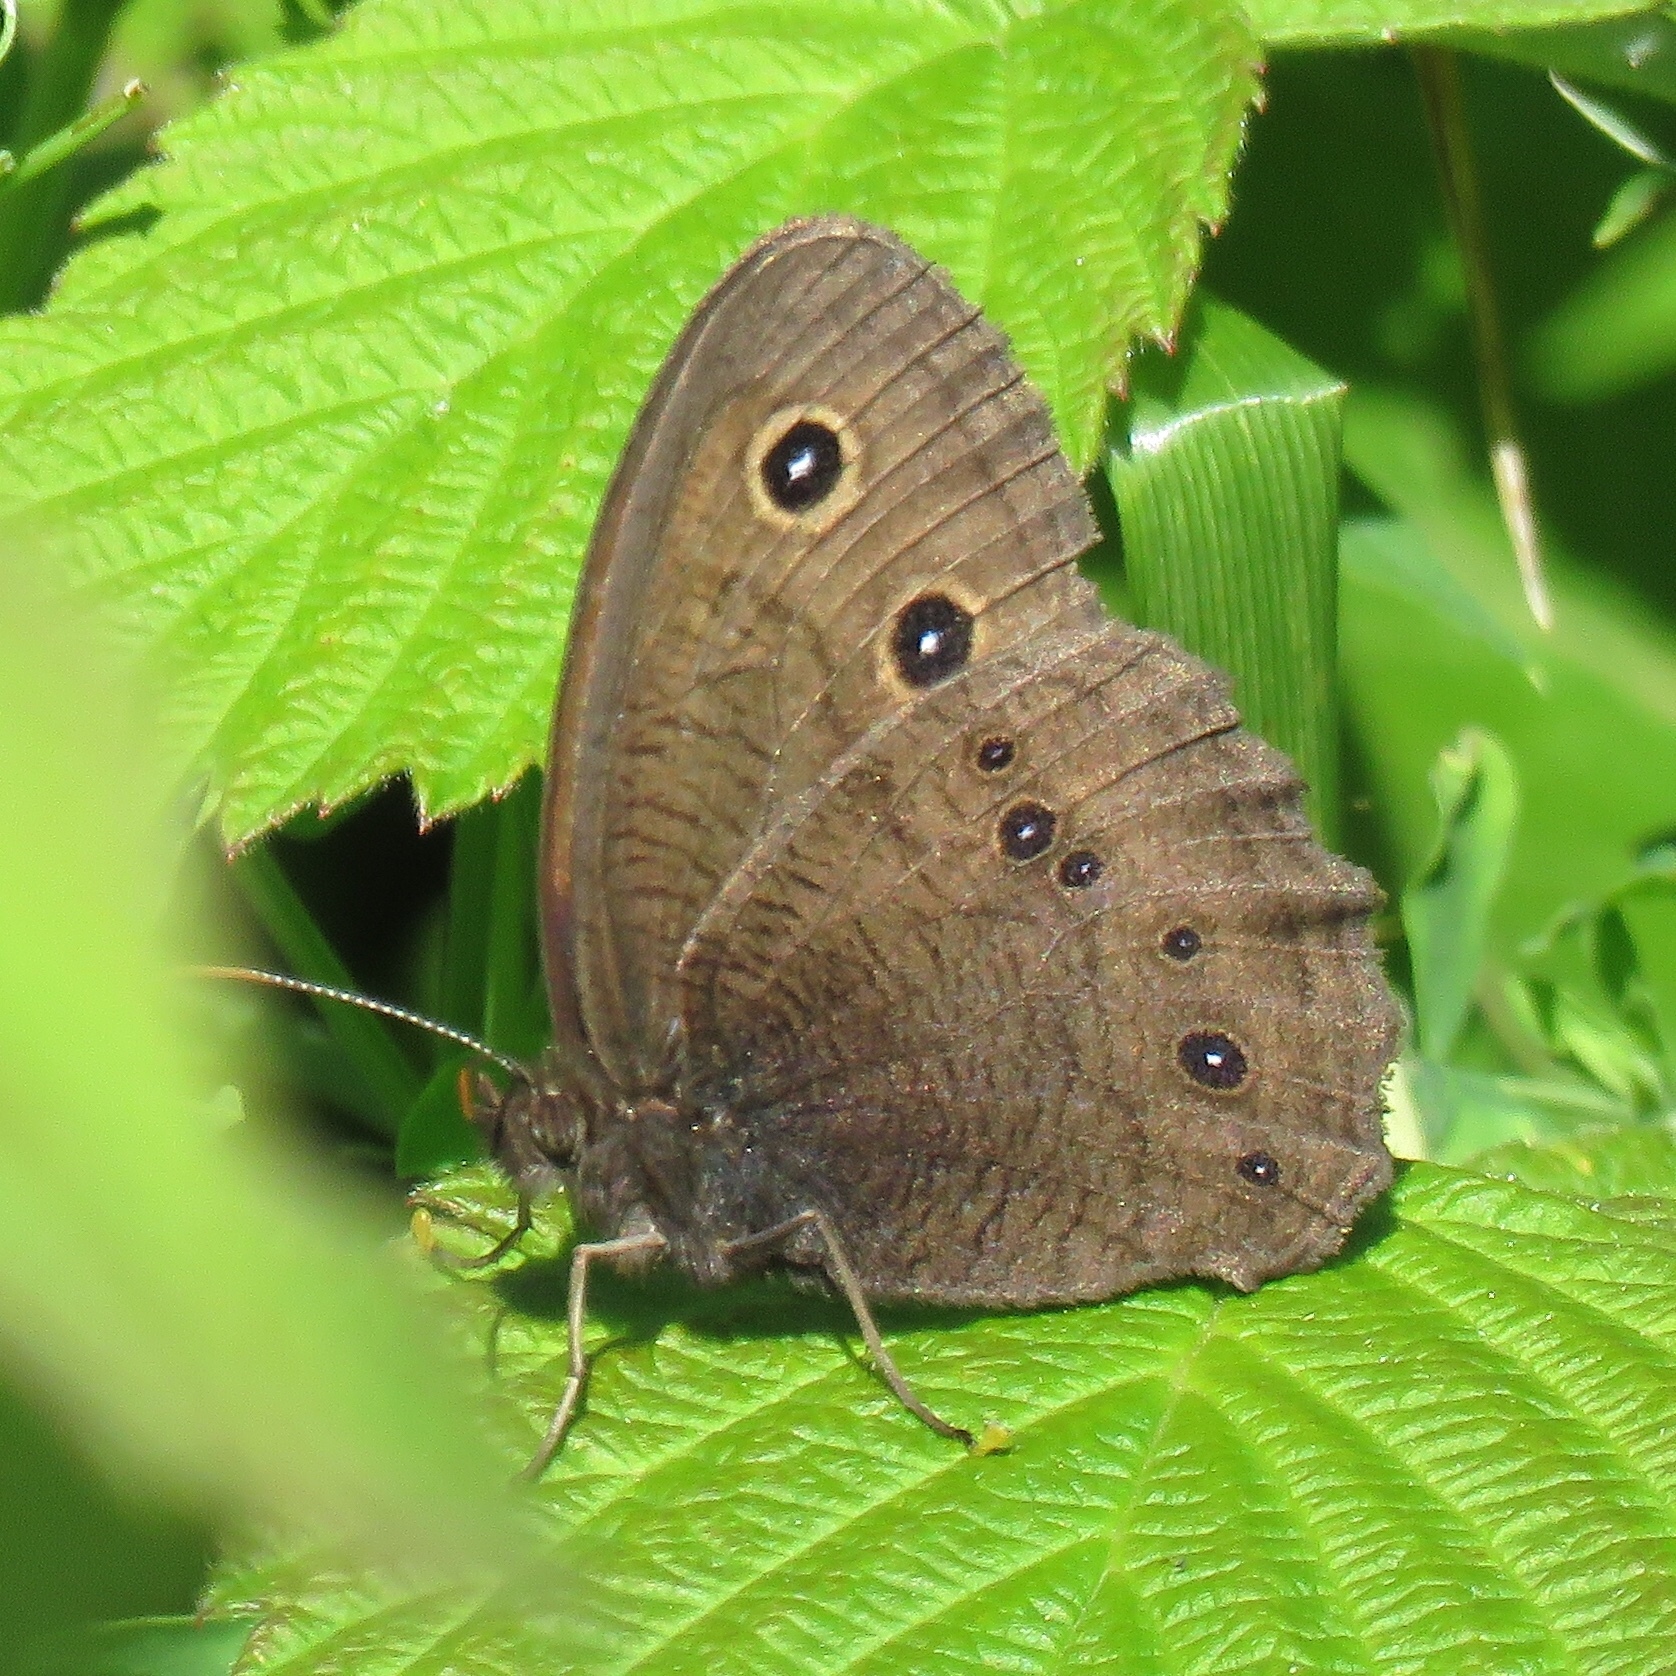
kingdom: Animalia
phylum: Arthropoda
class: Insecta
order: Lepidoptera
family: Nymphalidae
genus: Cercyonis
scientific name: Cercyonis pegala
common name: Common wood-nymph
